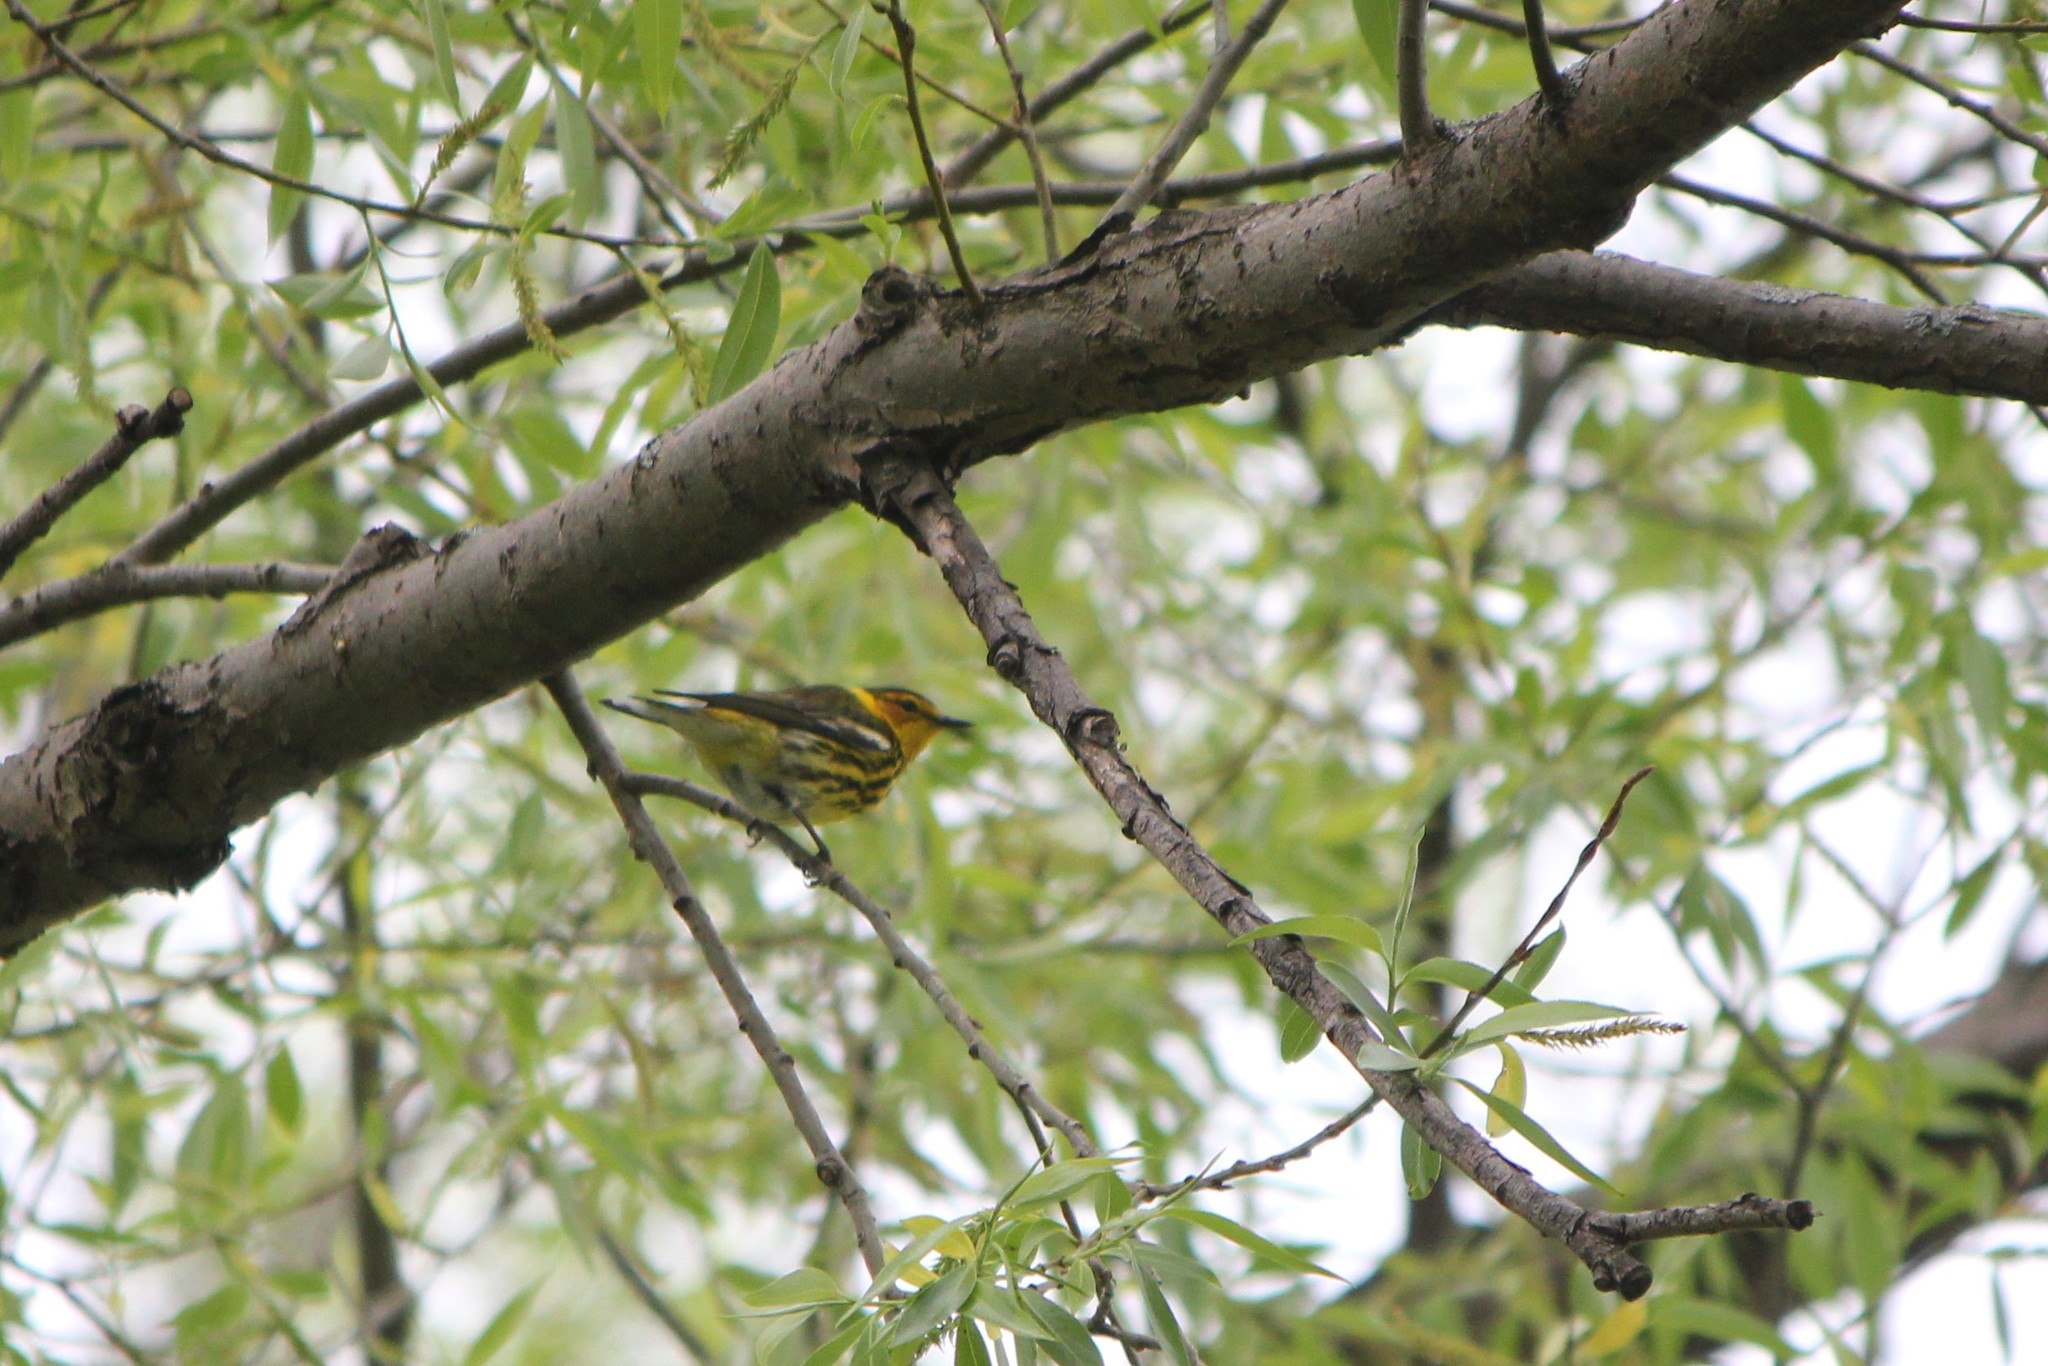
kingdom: Animalia
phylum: Chordata
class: Aves
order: Passeriformes
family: Parulidae
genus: Setophaga
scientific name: Setophaga tigrina
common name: Cape may warbler
